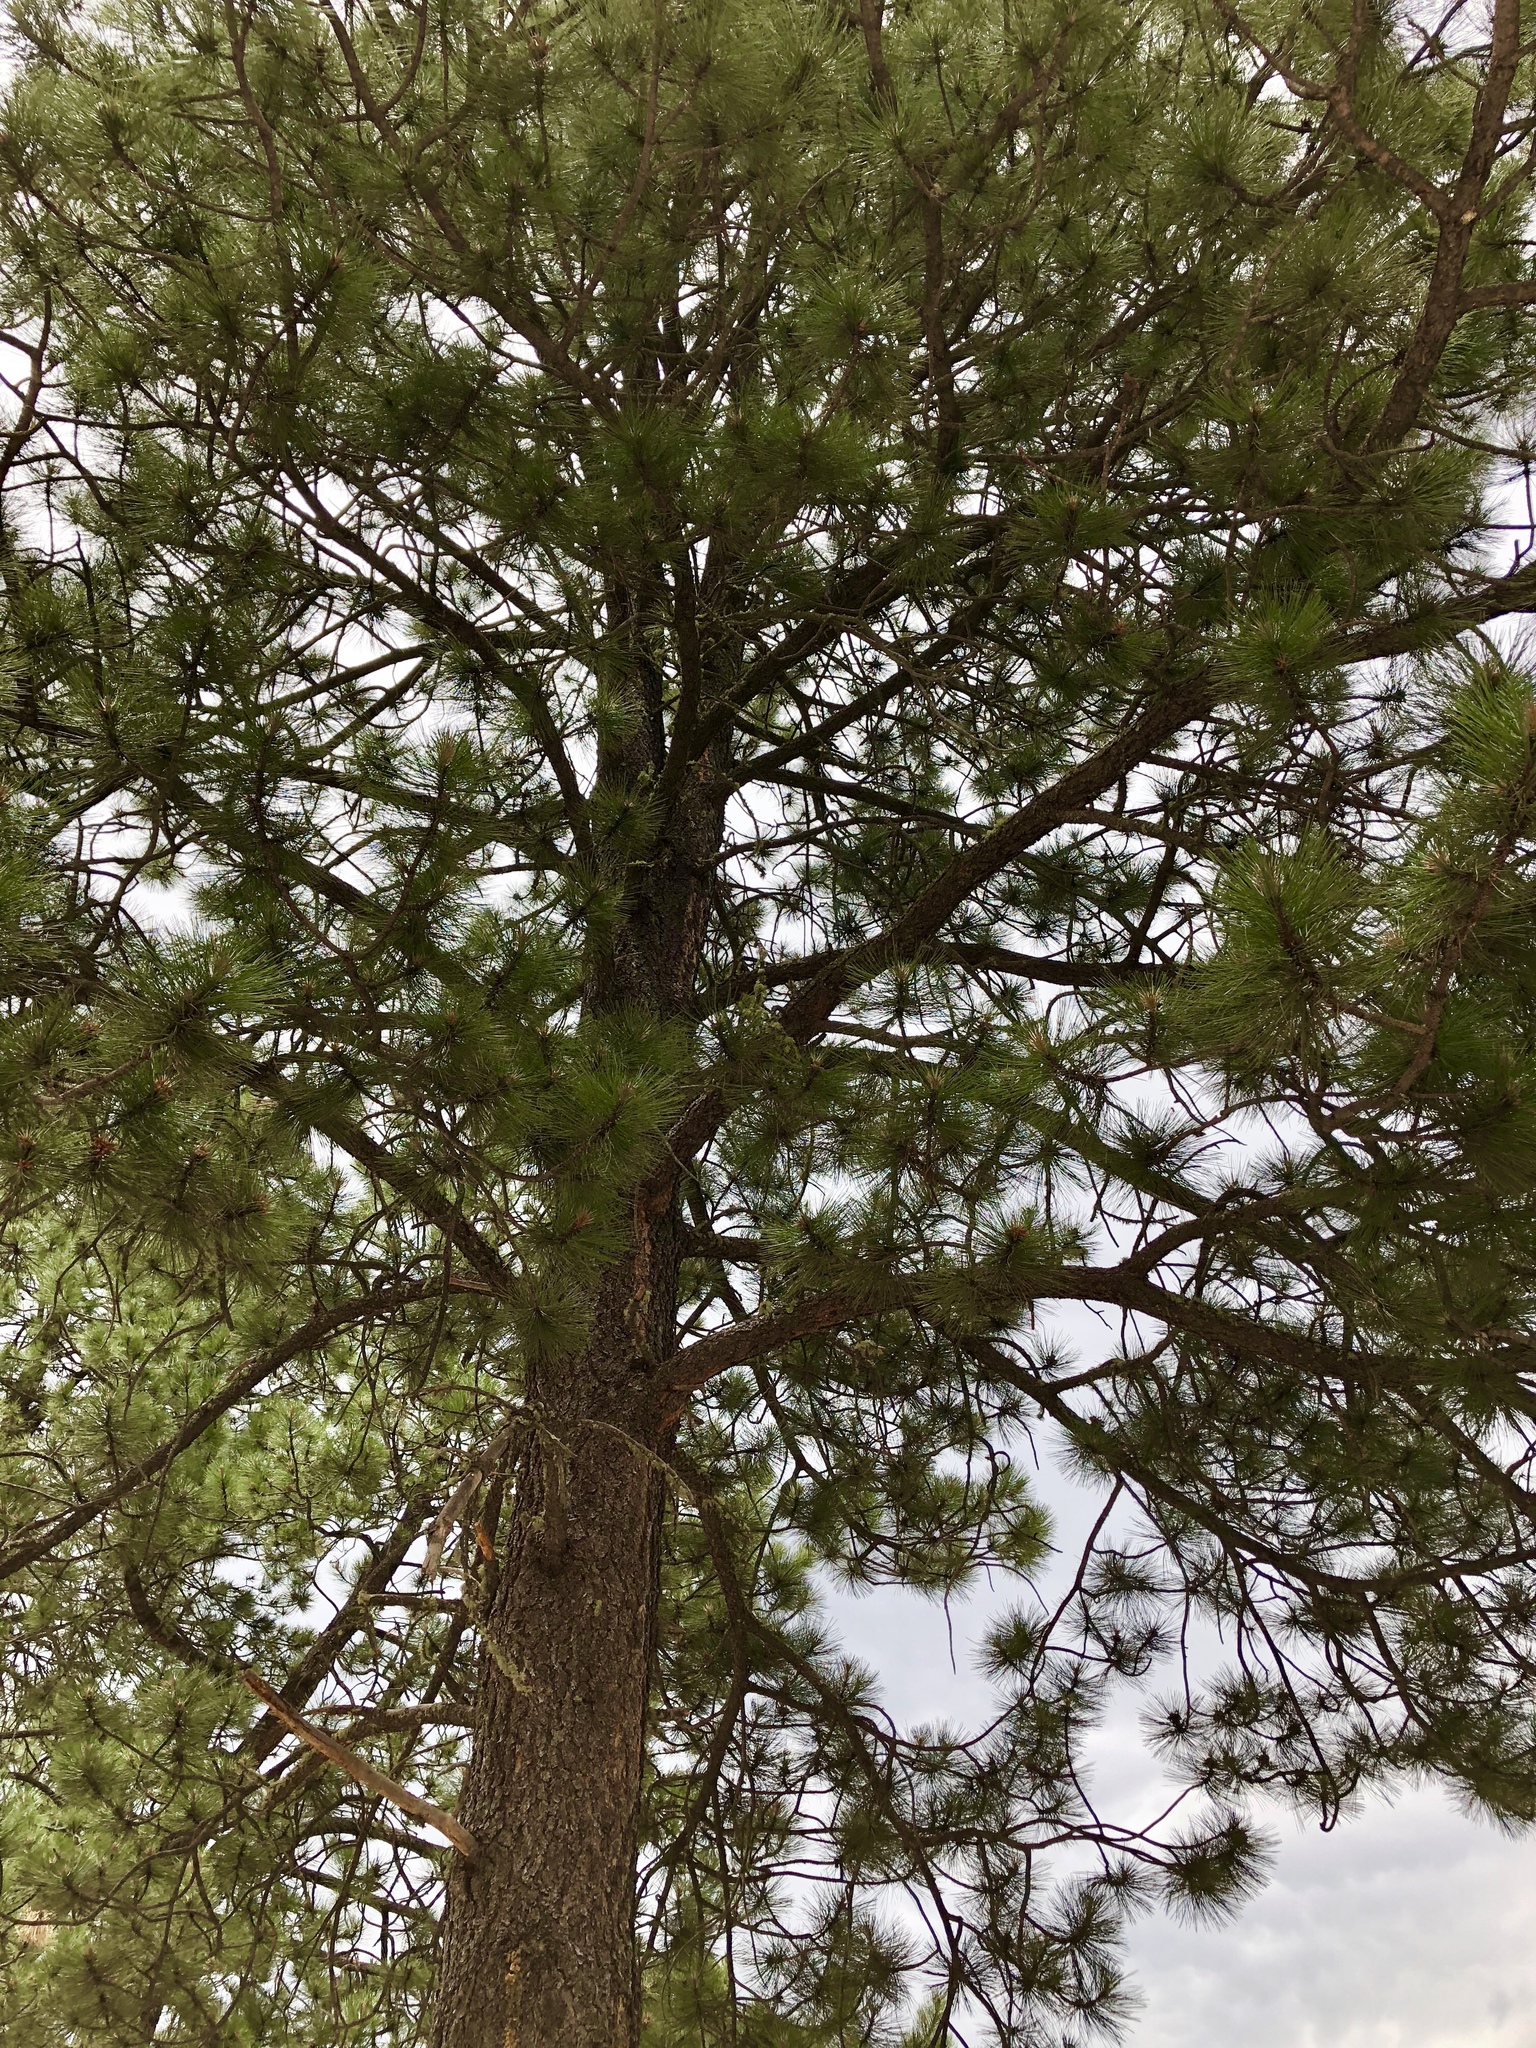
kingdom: Plantae
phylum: Tracheophyta
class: Pinopsida
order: Pinales
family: Pinaceae
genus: Pinus
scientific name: Pinus ponderosa
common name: Western yellow-pine
